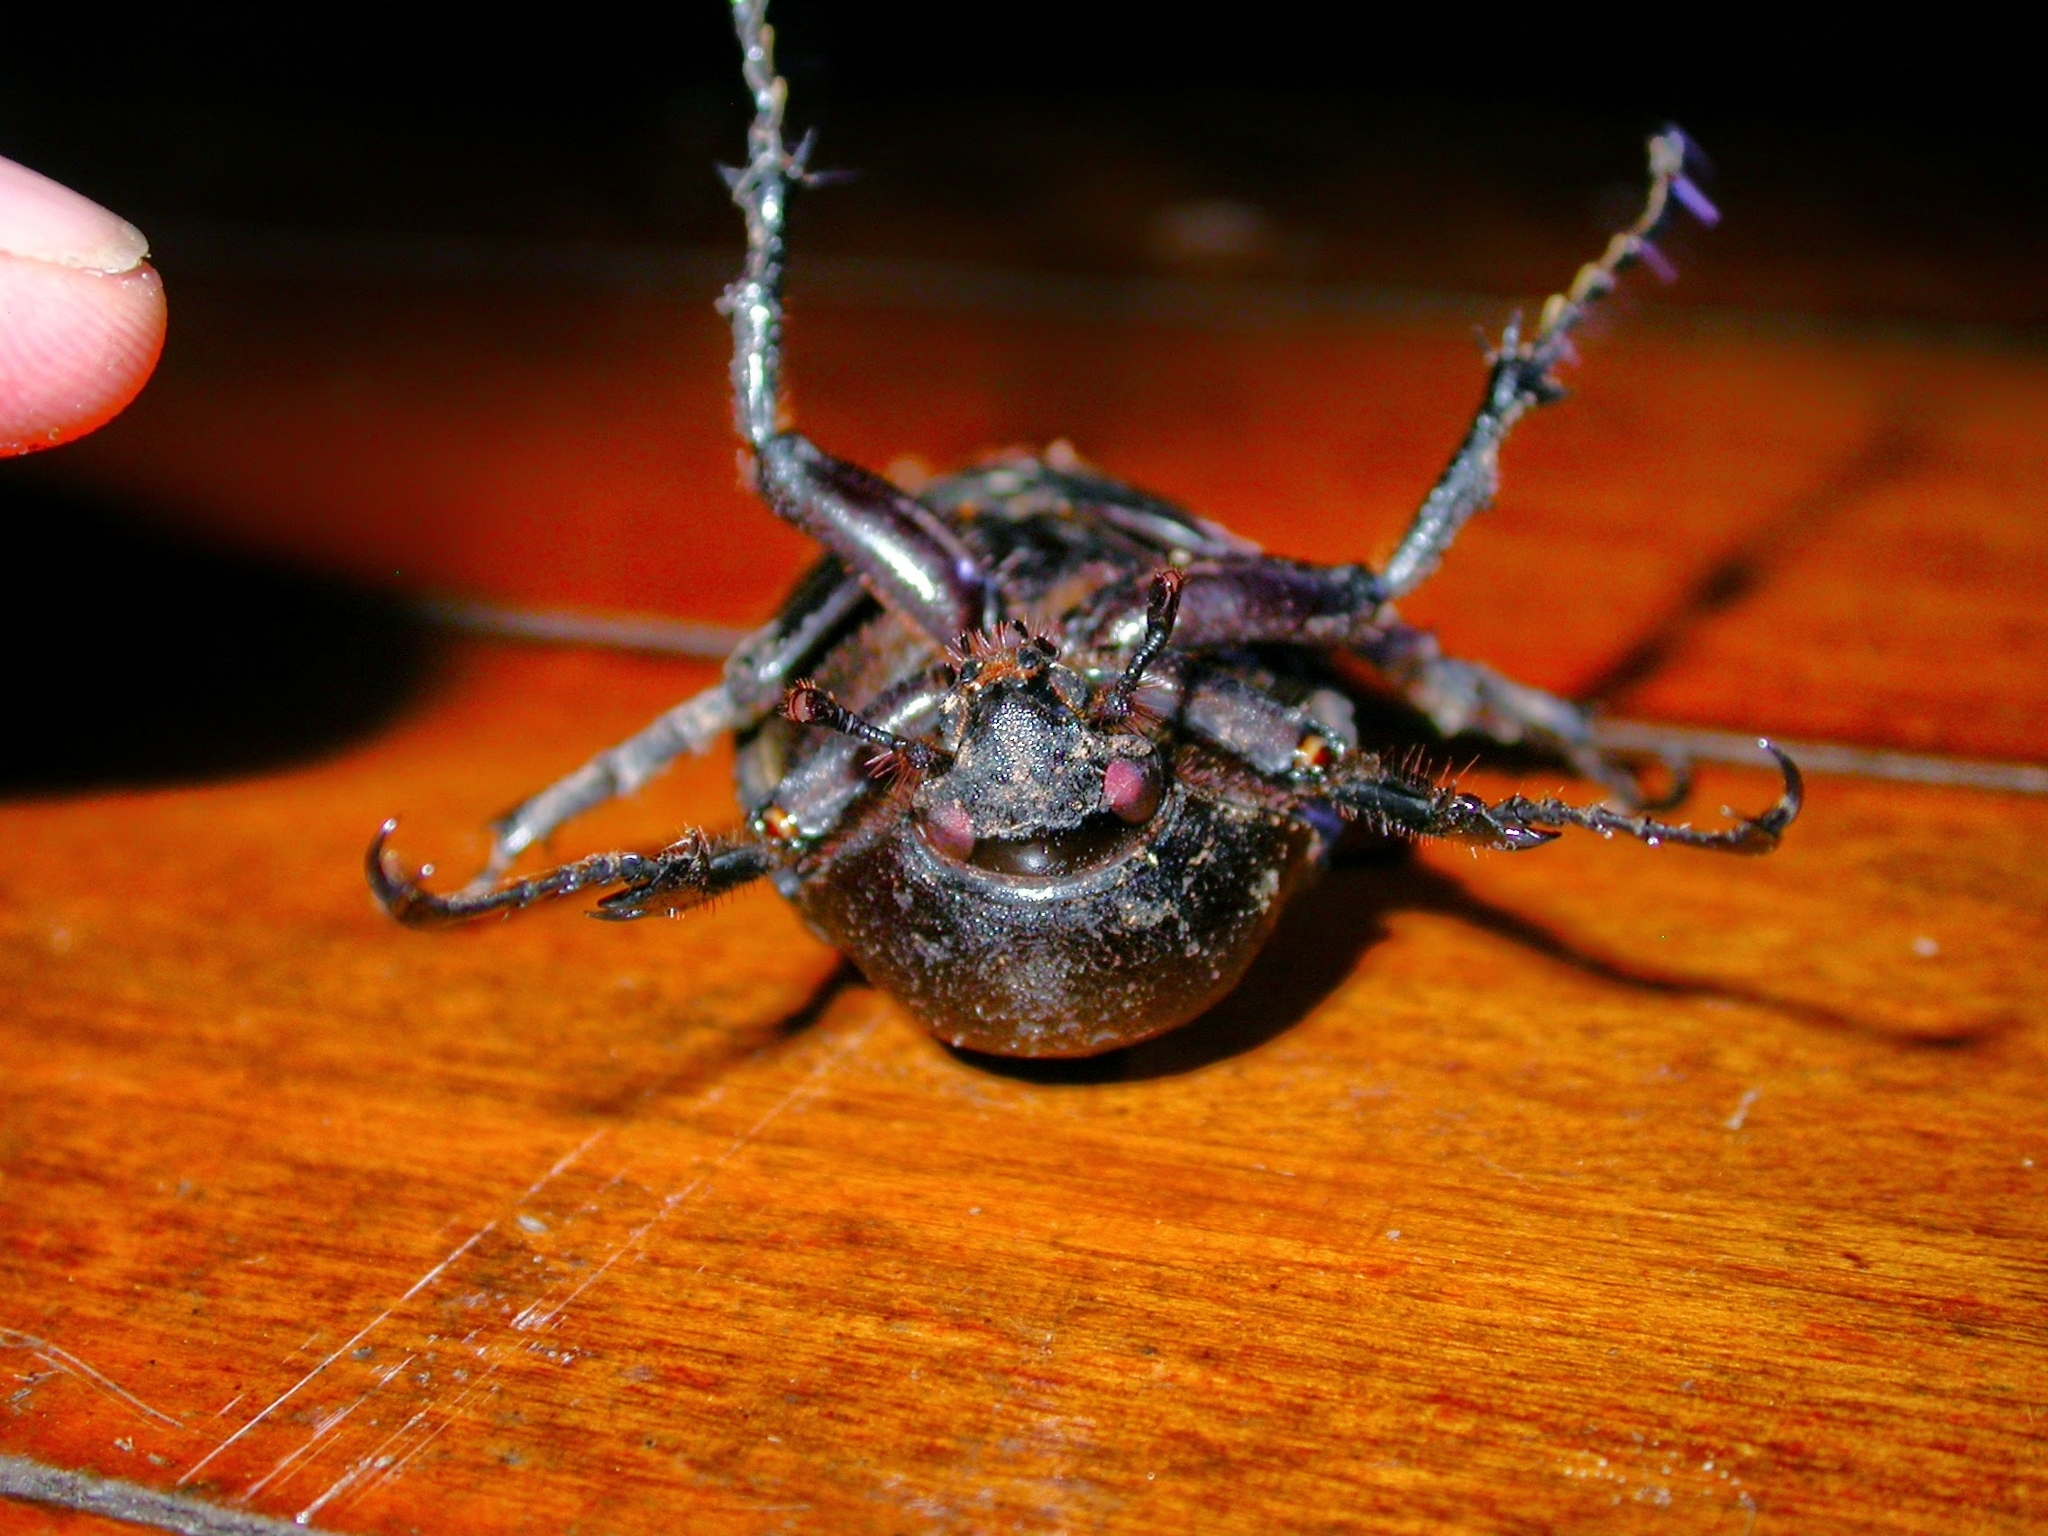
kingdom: Animalia
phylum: Arthropoda
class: Insecta
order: Coleoptera
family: Scarabaeidae
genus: Chalcosoma
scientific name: Chalcosoma atlas
